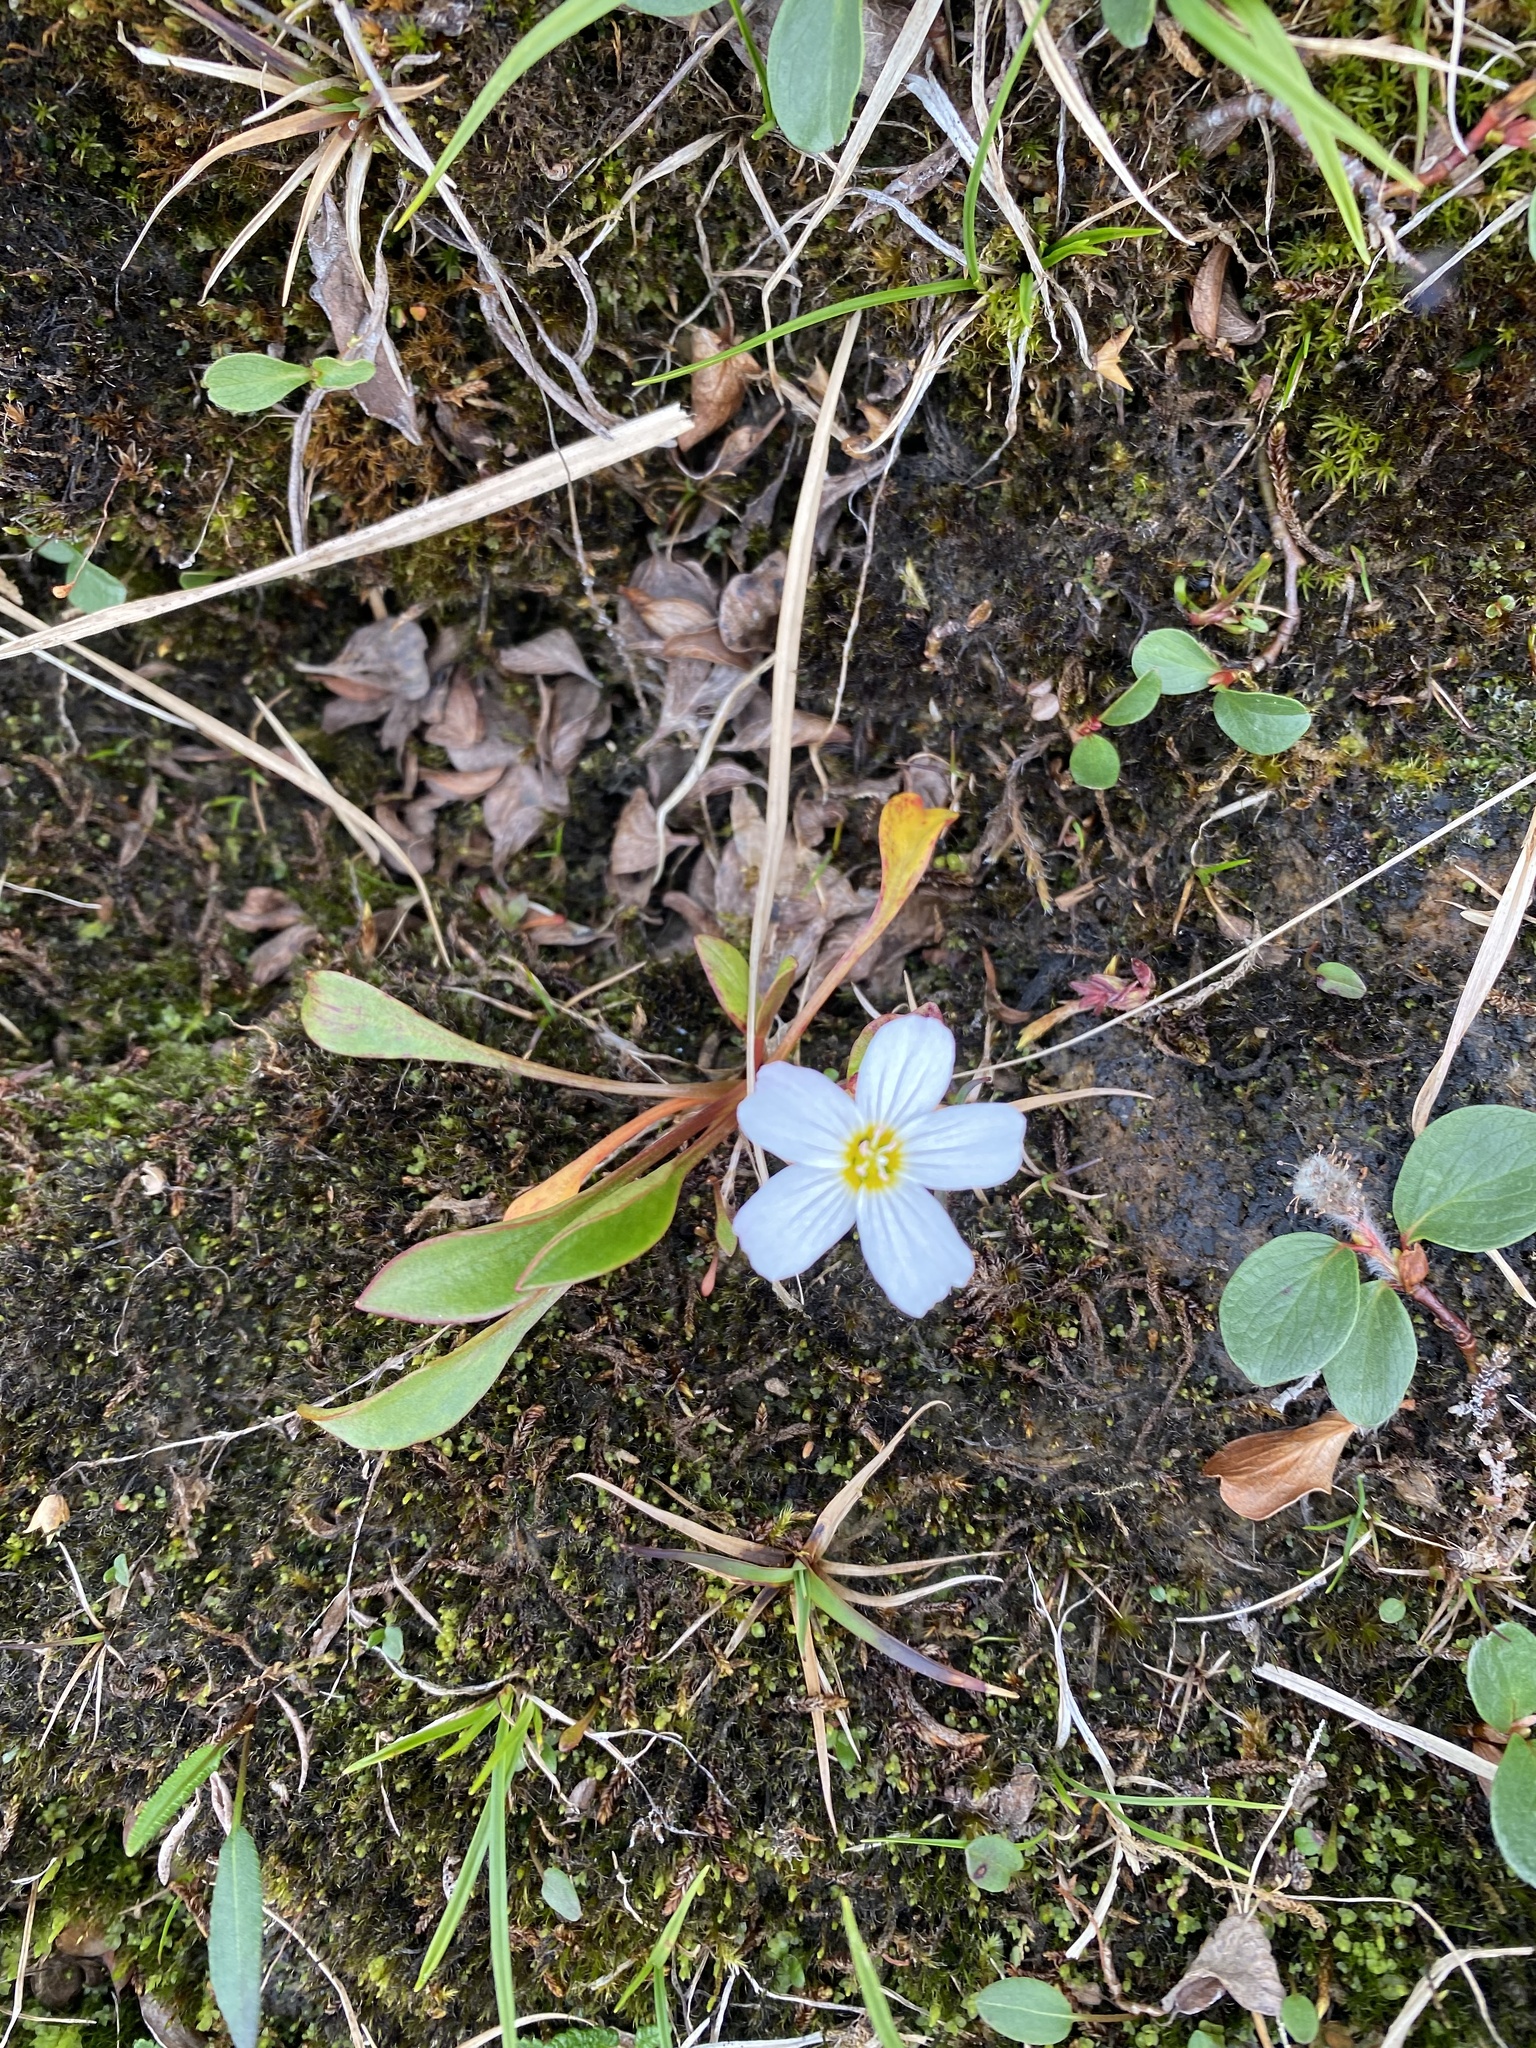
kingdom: Plantae
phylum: Tracheophyta
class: Magnoliopsida
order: Caryophyllales
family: Montiaceae
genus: Claytonia
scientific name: Claytonia joanneana
